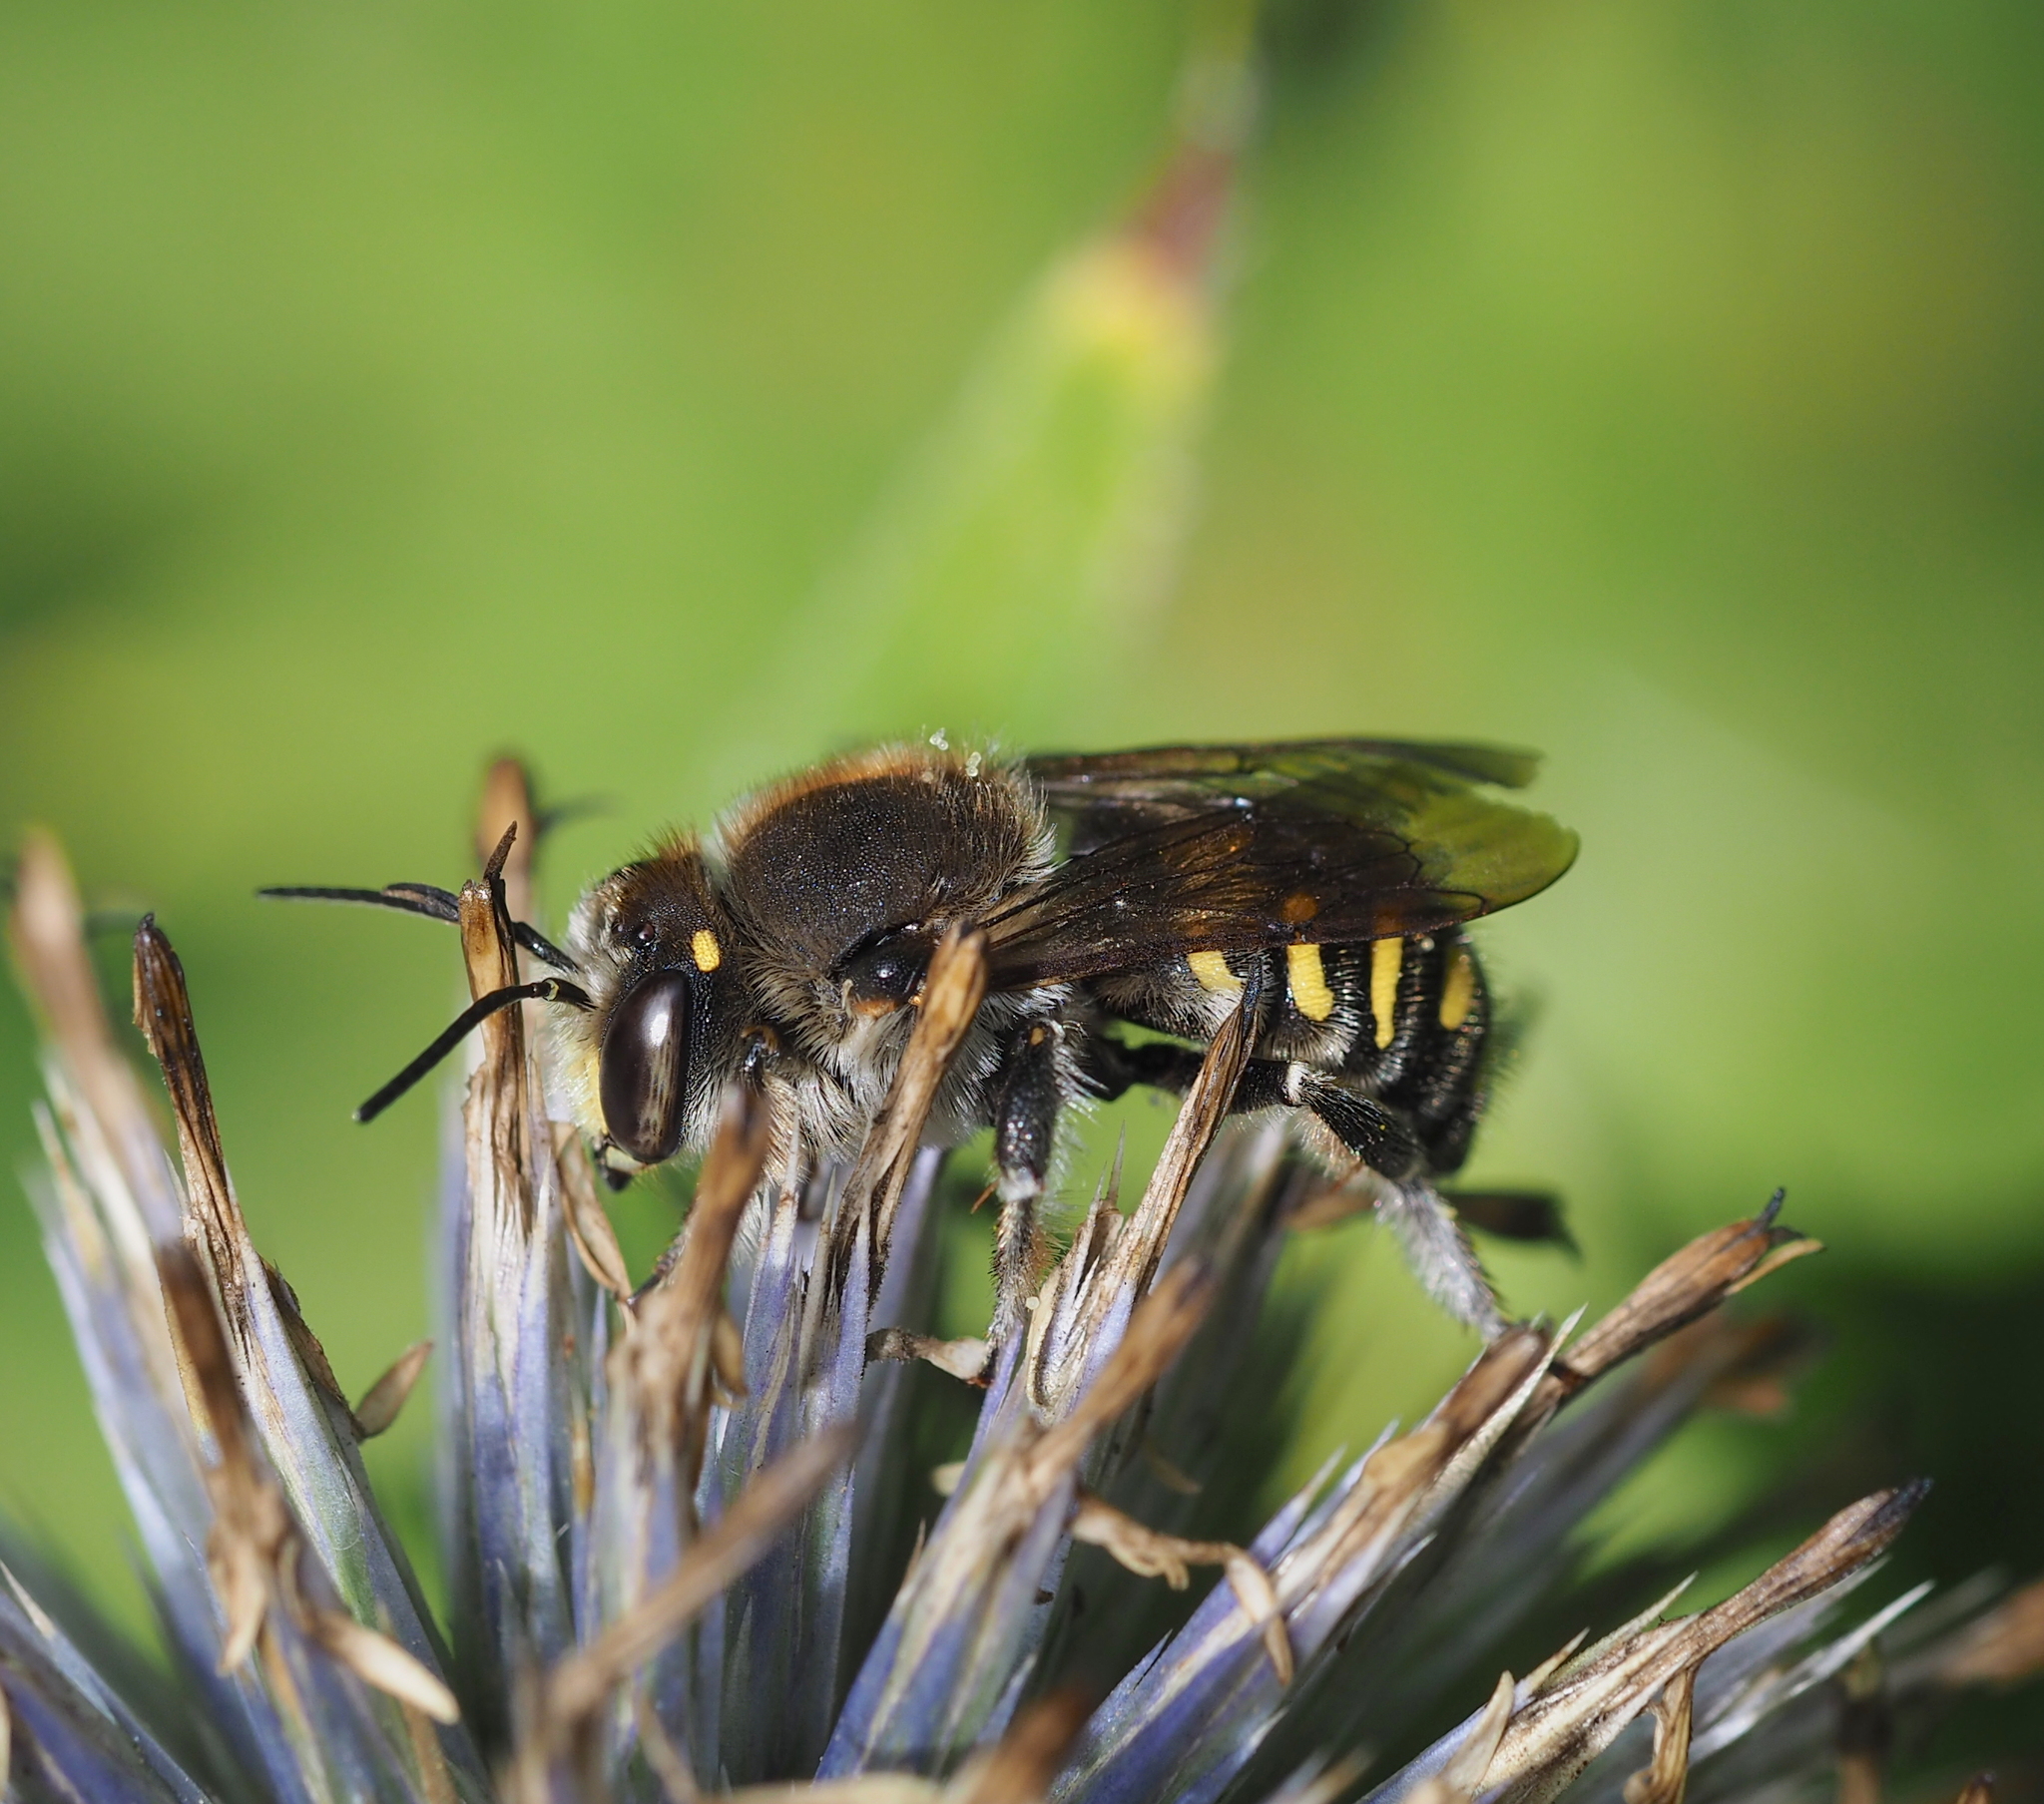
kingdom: Animalia
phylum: Arthropoda
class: Insecta
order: Hymenoptera
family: Megachilidae
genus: Anthidium
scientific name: Anthidium septemspinosum
